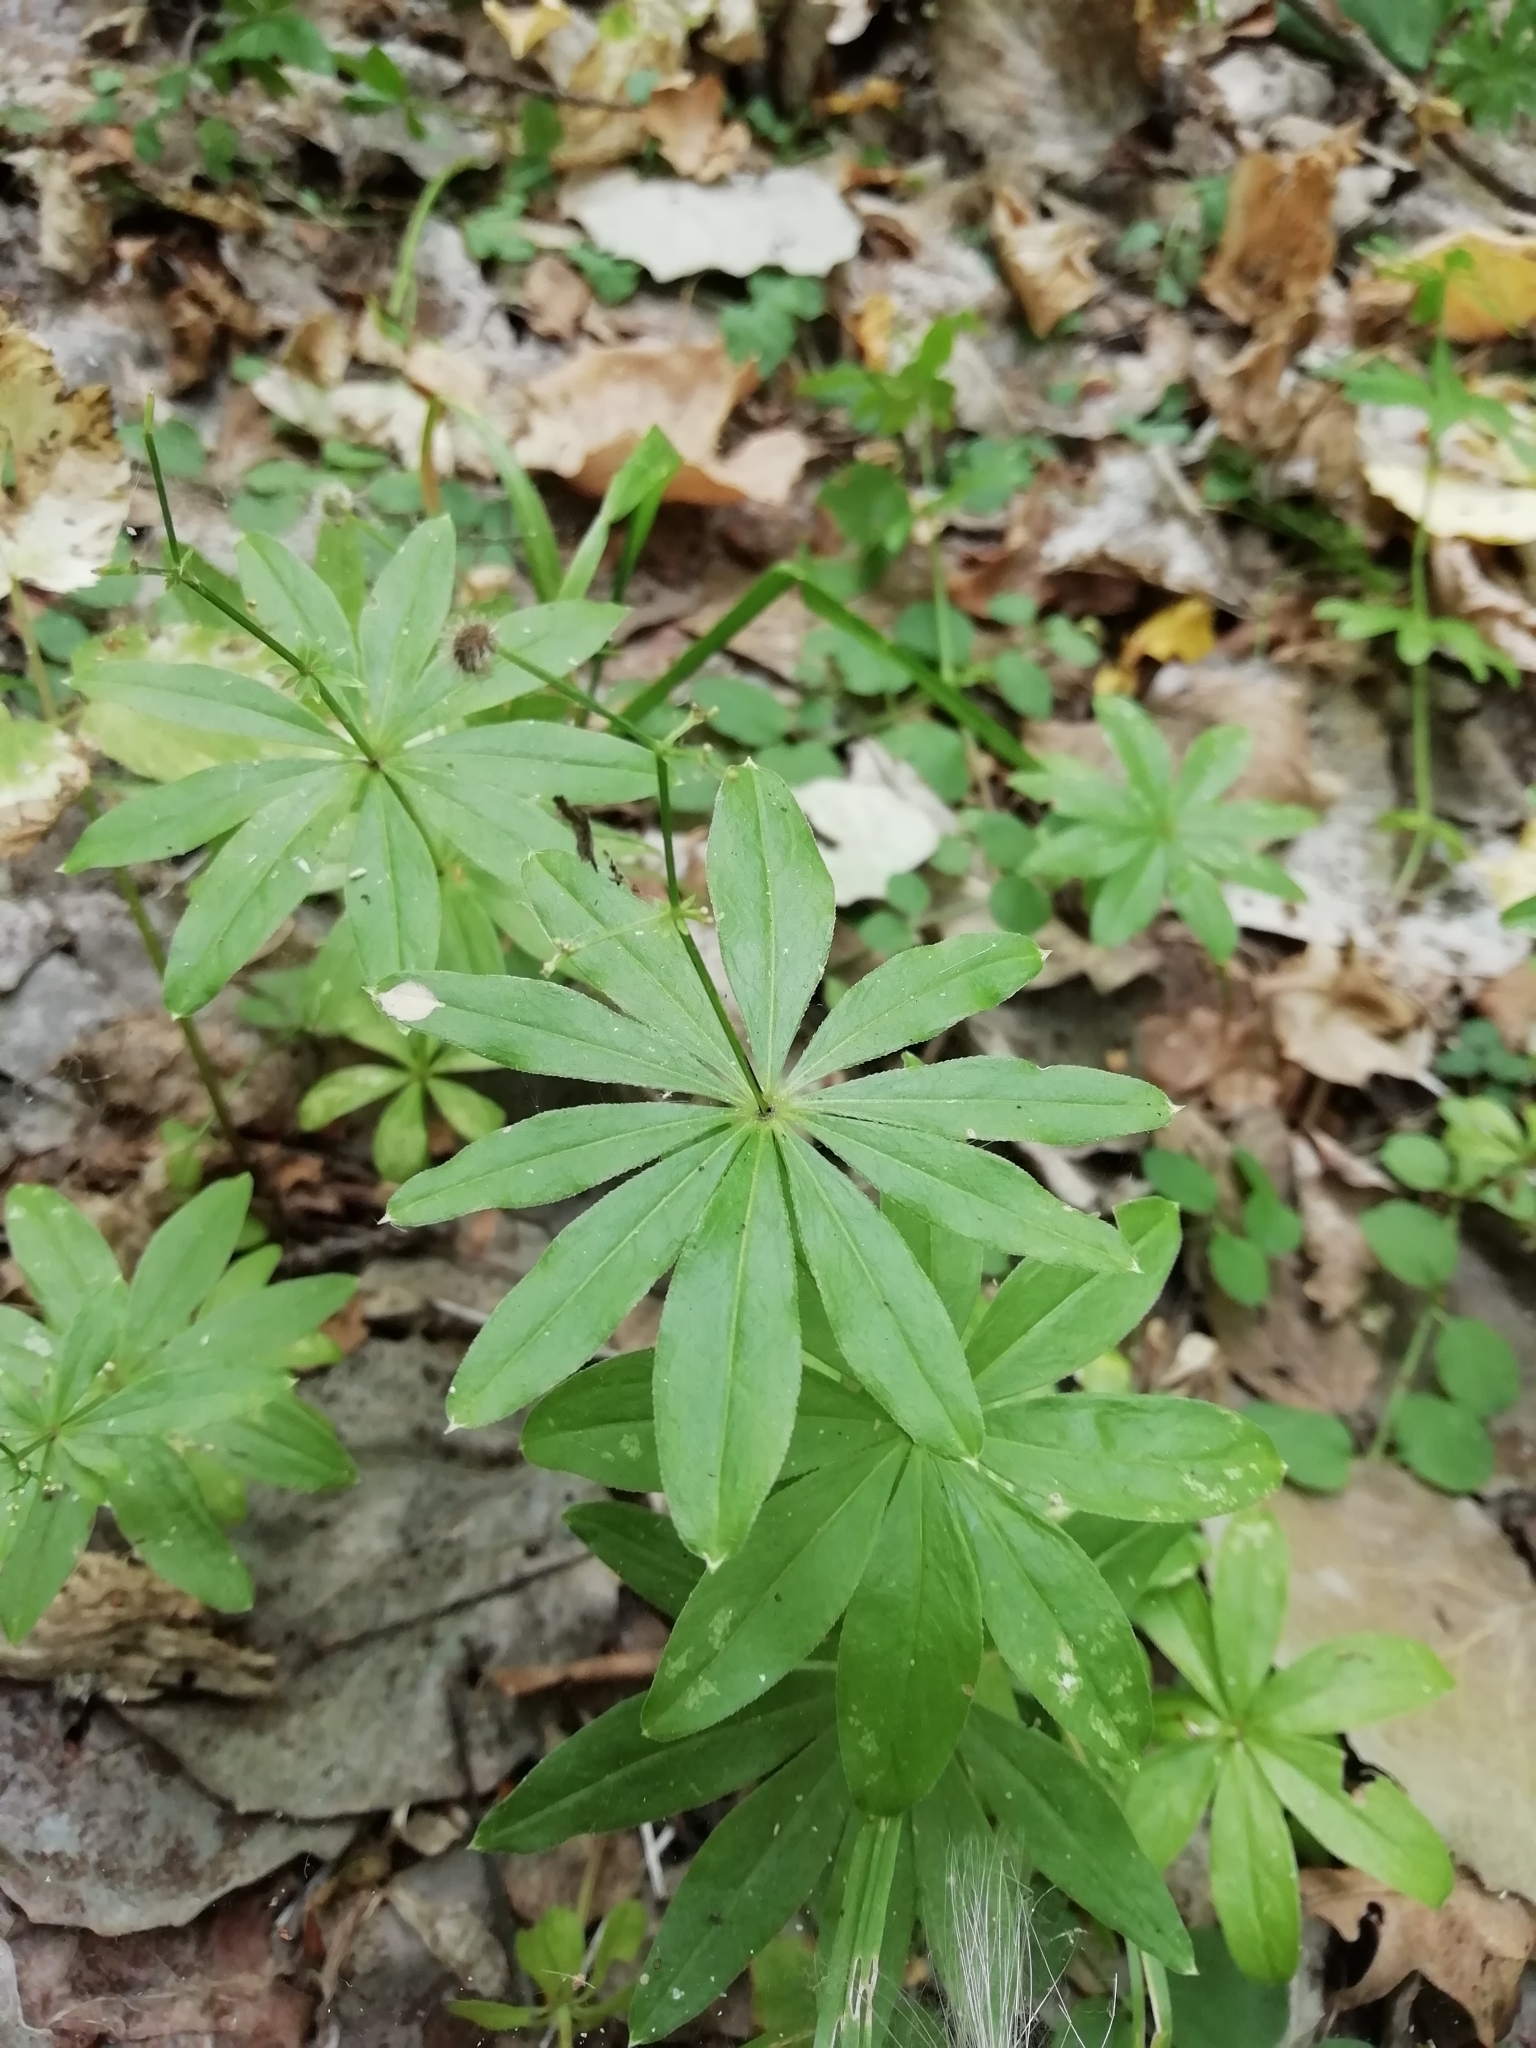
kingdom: Plantae
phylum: Tracheophyta
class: Magnoliopsida
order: Gentianales
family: Rubiaceae
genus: Galium
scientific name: Galium odoratum
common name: Sweet woodruff
